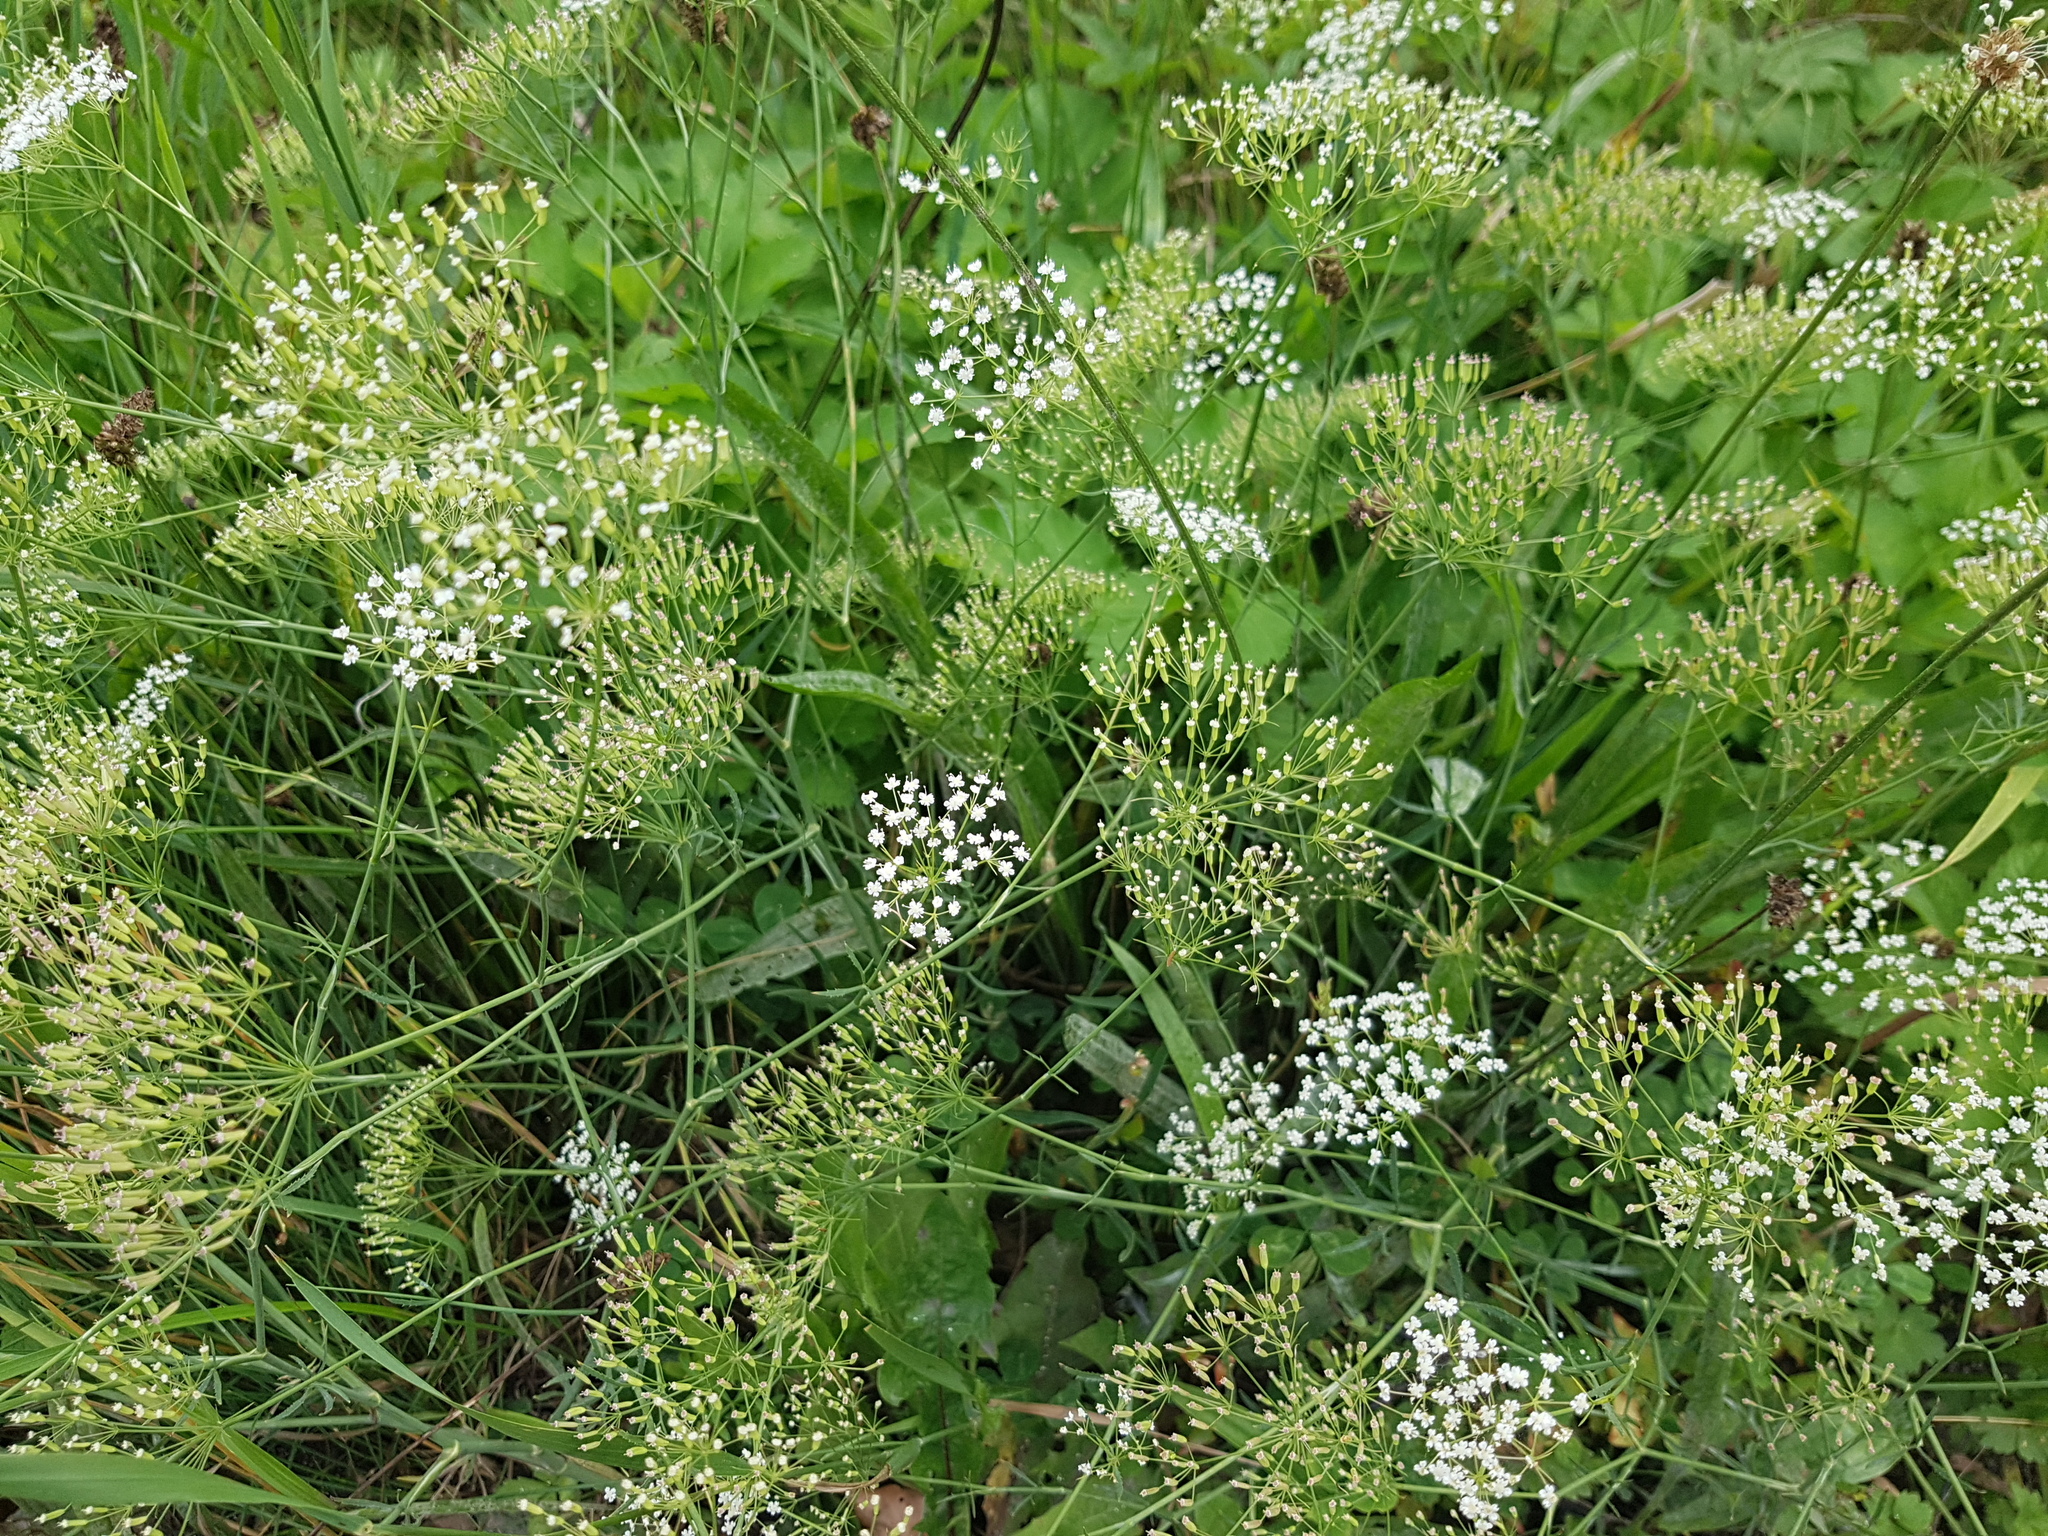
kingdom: Plantae
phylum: Tracheophyta
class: Magnoliopsida
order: Apiales
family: Apiaceae
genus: Falcaria
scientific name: Falcaria vulgaris
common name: Longleaf
